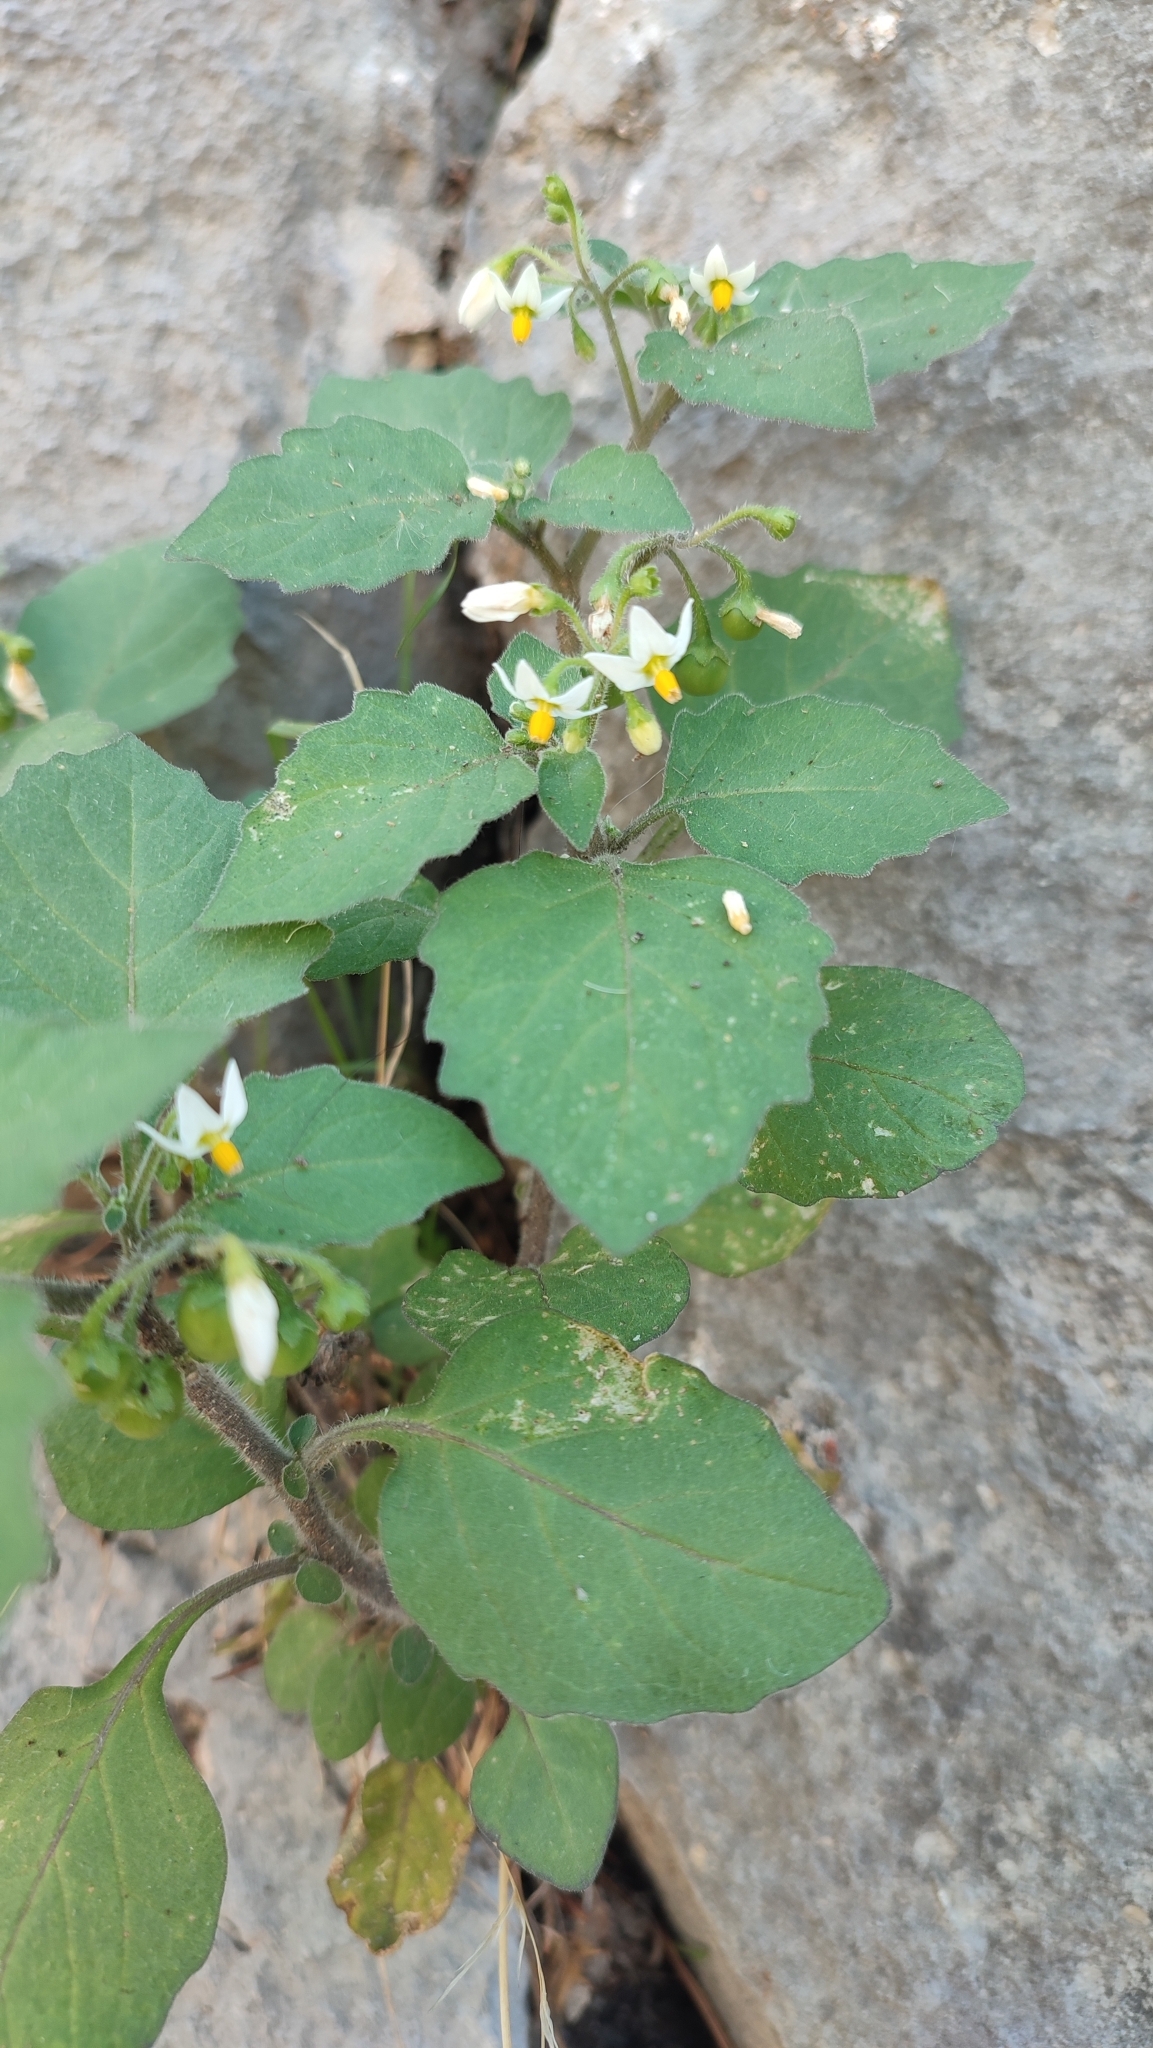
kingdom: Plantae
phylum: Tracheophyta
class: Magnoliopsida
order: Solanales
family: Solanaceae
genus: Solanum
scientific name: Solanum nigrum
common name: Black nightshade
